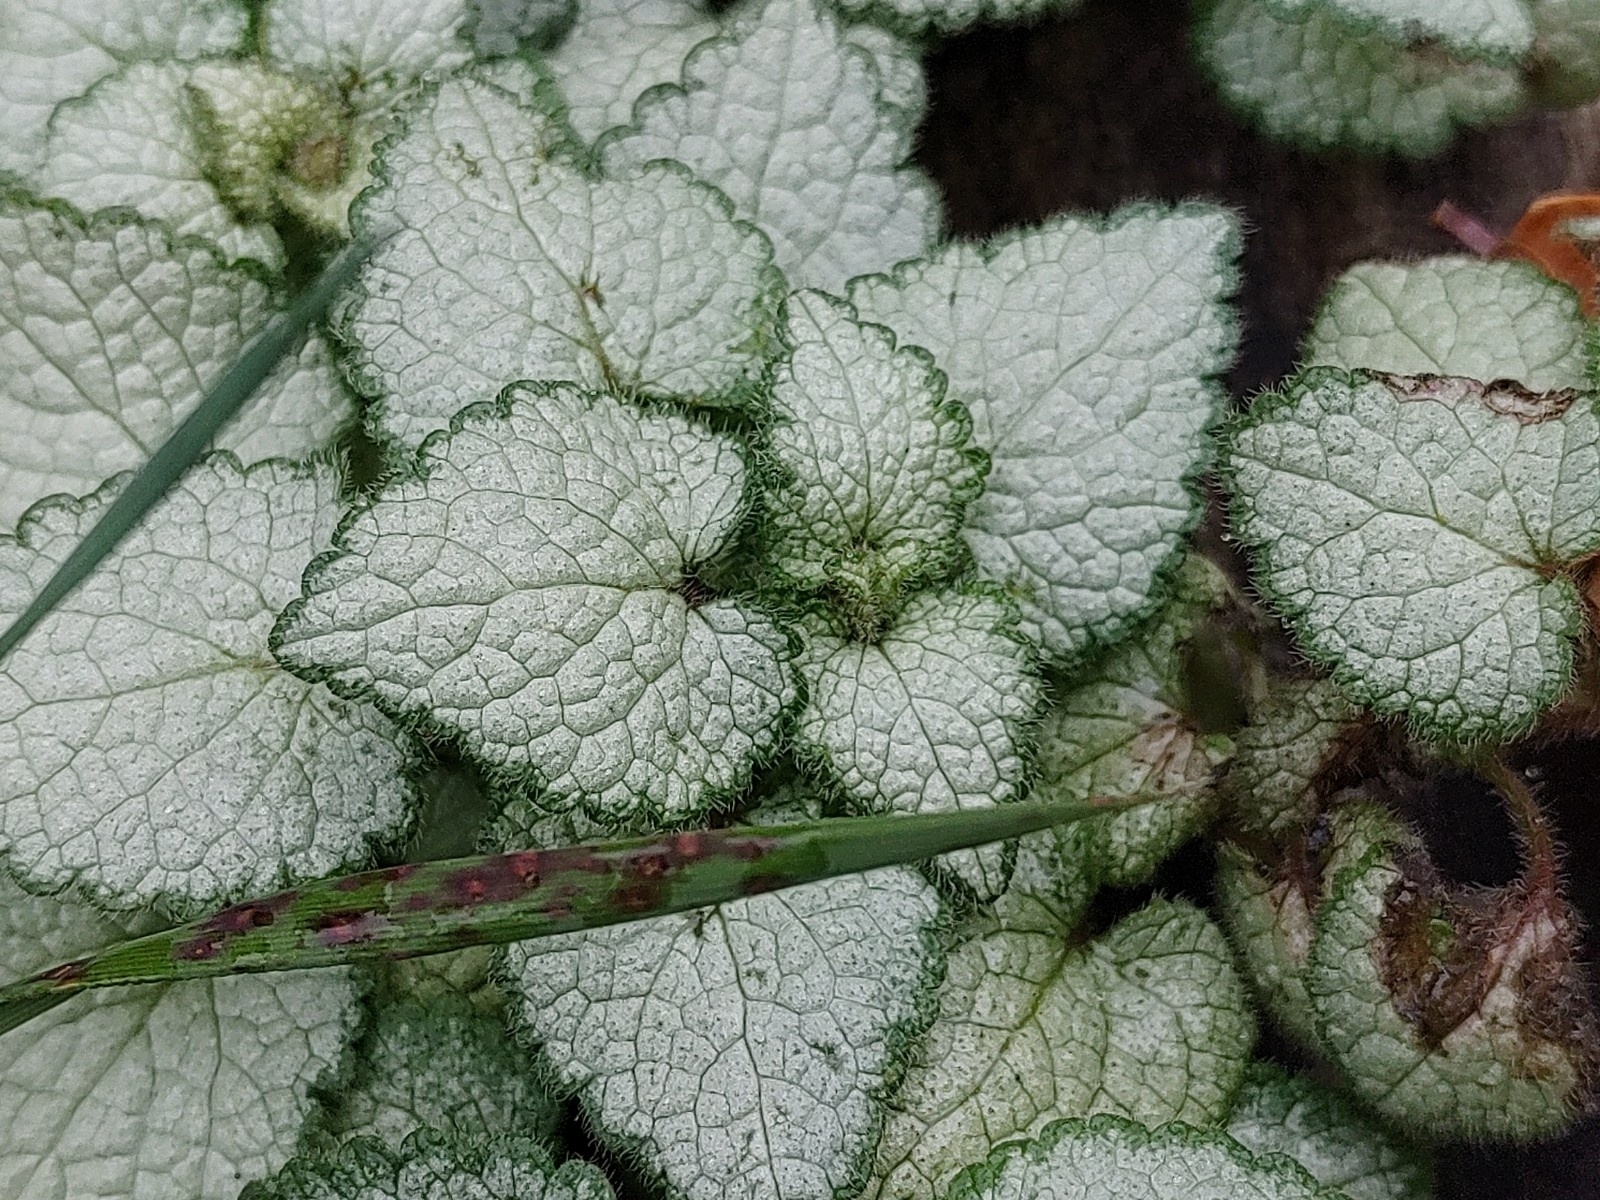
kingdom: Plantae
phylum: Tracheophyta
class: Magnoliopsida
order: Lamiales
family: Lamiaceae
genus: Lamium
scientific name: Lamium maculatum
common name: Spotted dead-nettle
